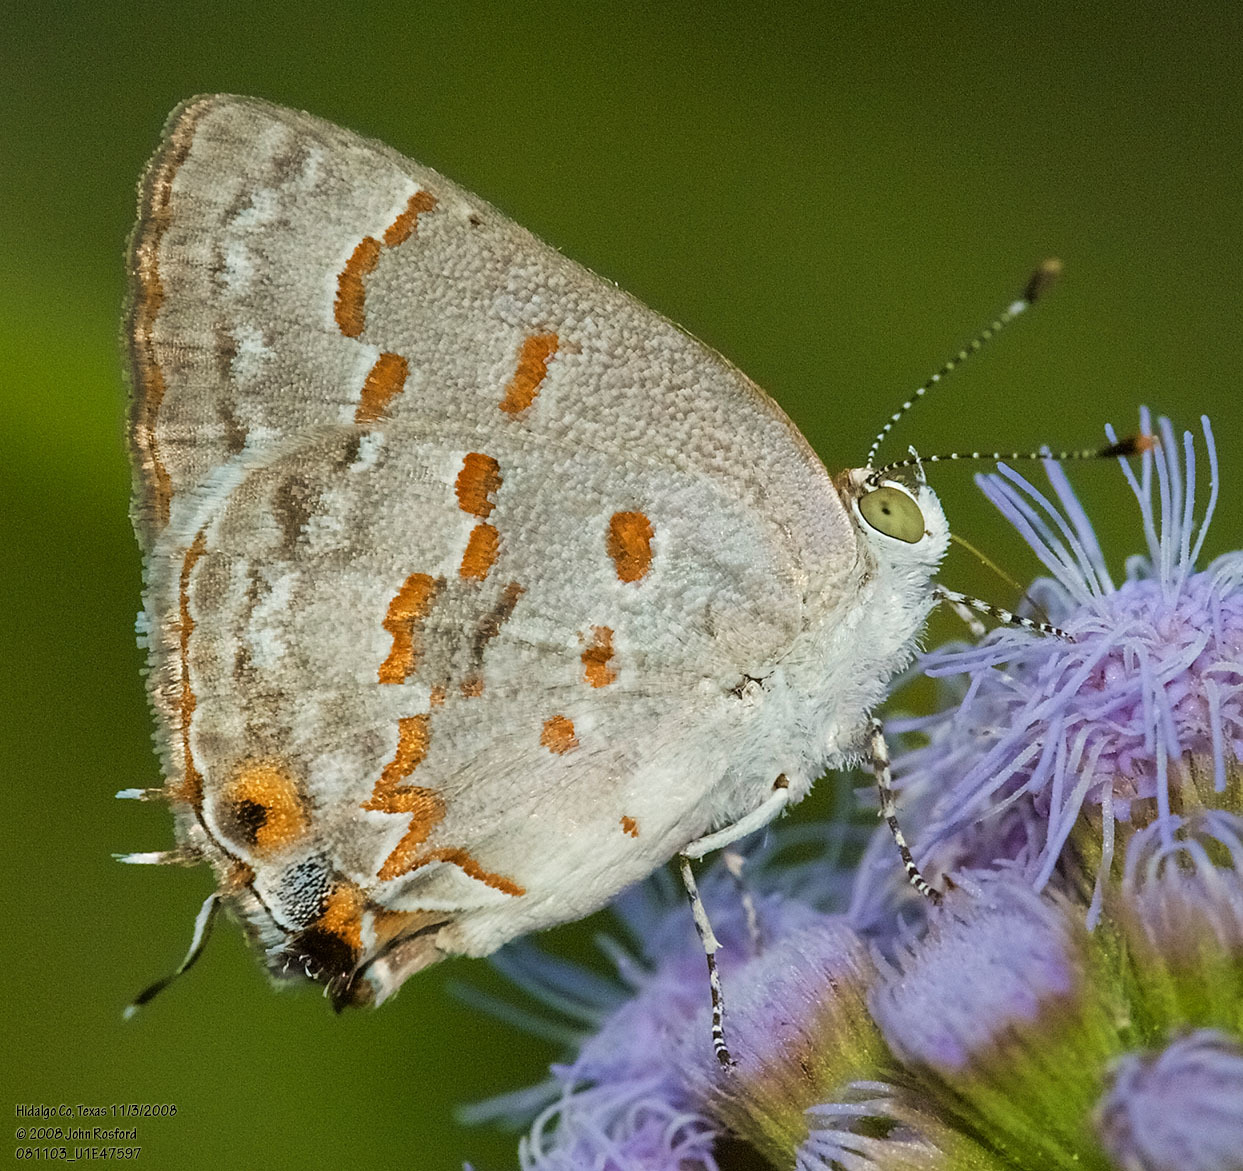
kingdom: Animalia
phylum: Arthropoda
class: Insecta
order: Lepidoptera
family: Lycaenidae
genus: Ministrymon
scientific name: Ministrymon clytie
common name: Clytie ministreak
